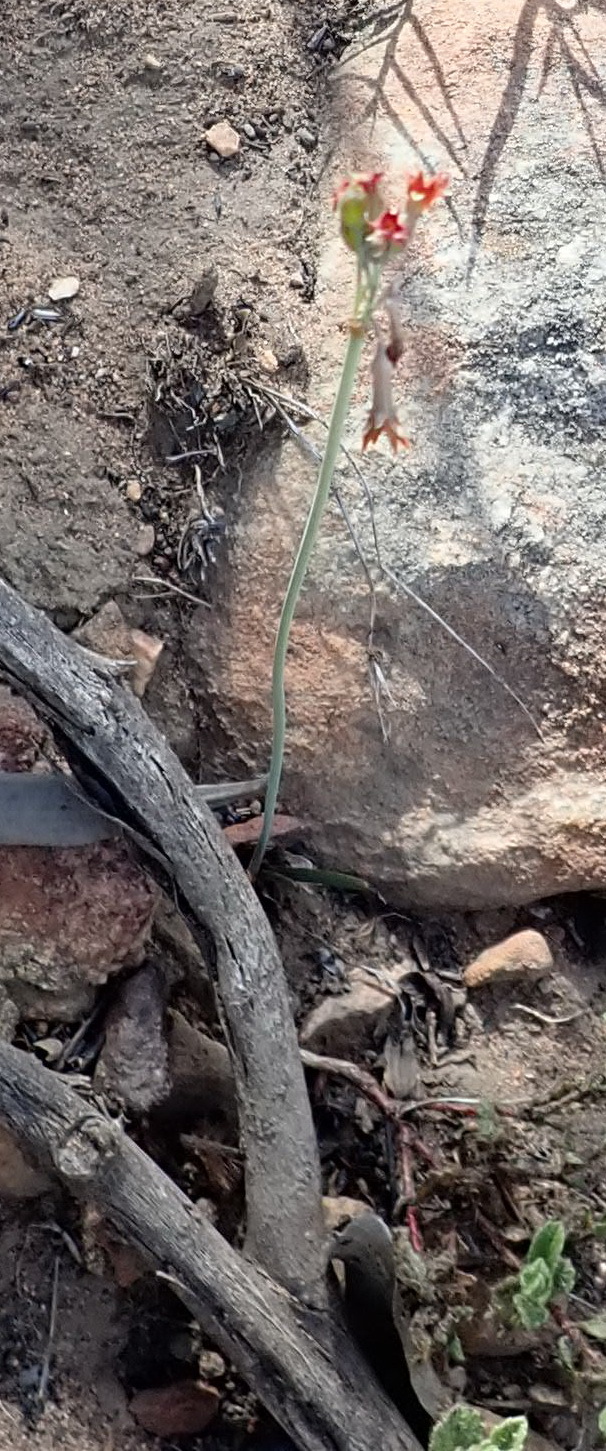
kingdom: Plantae
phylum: Tracheophyta
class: Liliopsida
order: Asparagales
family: Amaryllidaceae
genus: Tulbaghia
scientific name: Tulbaghia capensis
